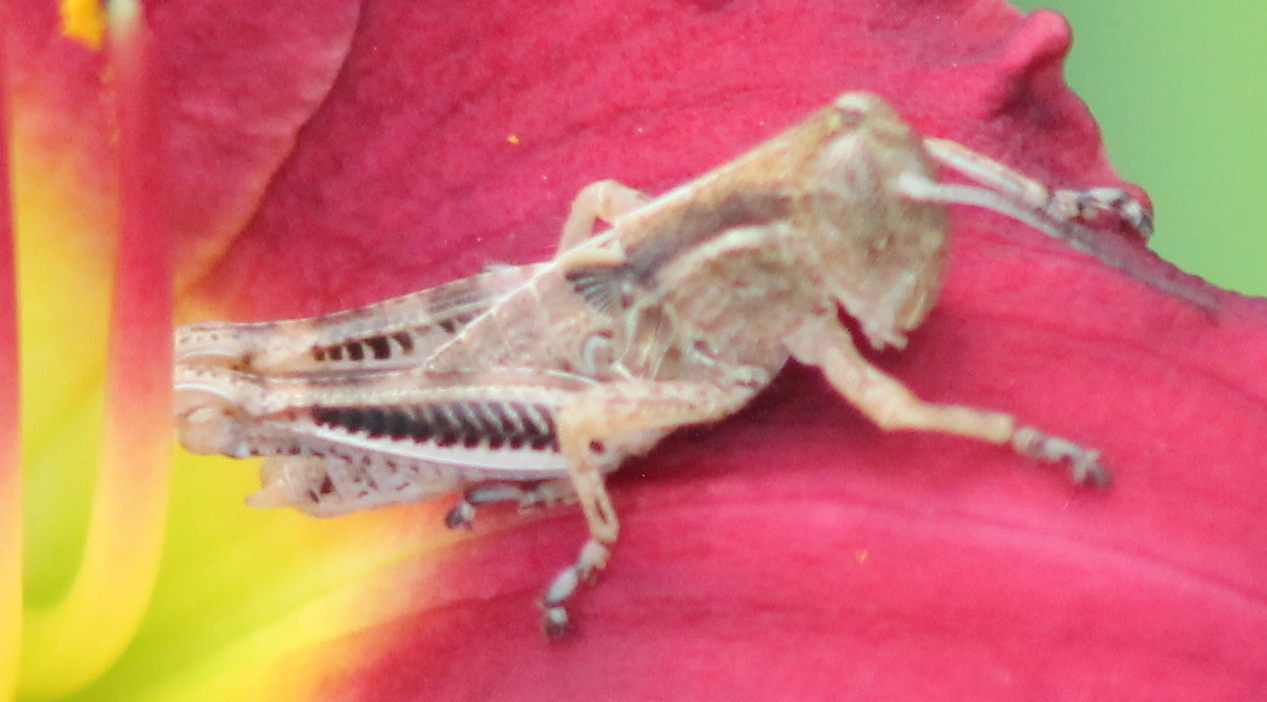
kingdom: Animalia
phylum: Arthropoda
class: Insecta
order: Orthoptera
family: Acrididae
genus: Melanoplus
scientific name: Melanoplus differentialis
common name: Differential grasshopper
